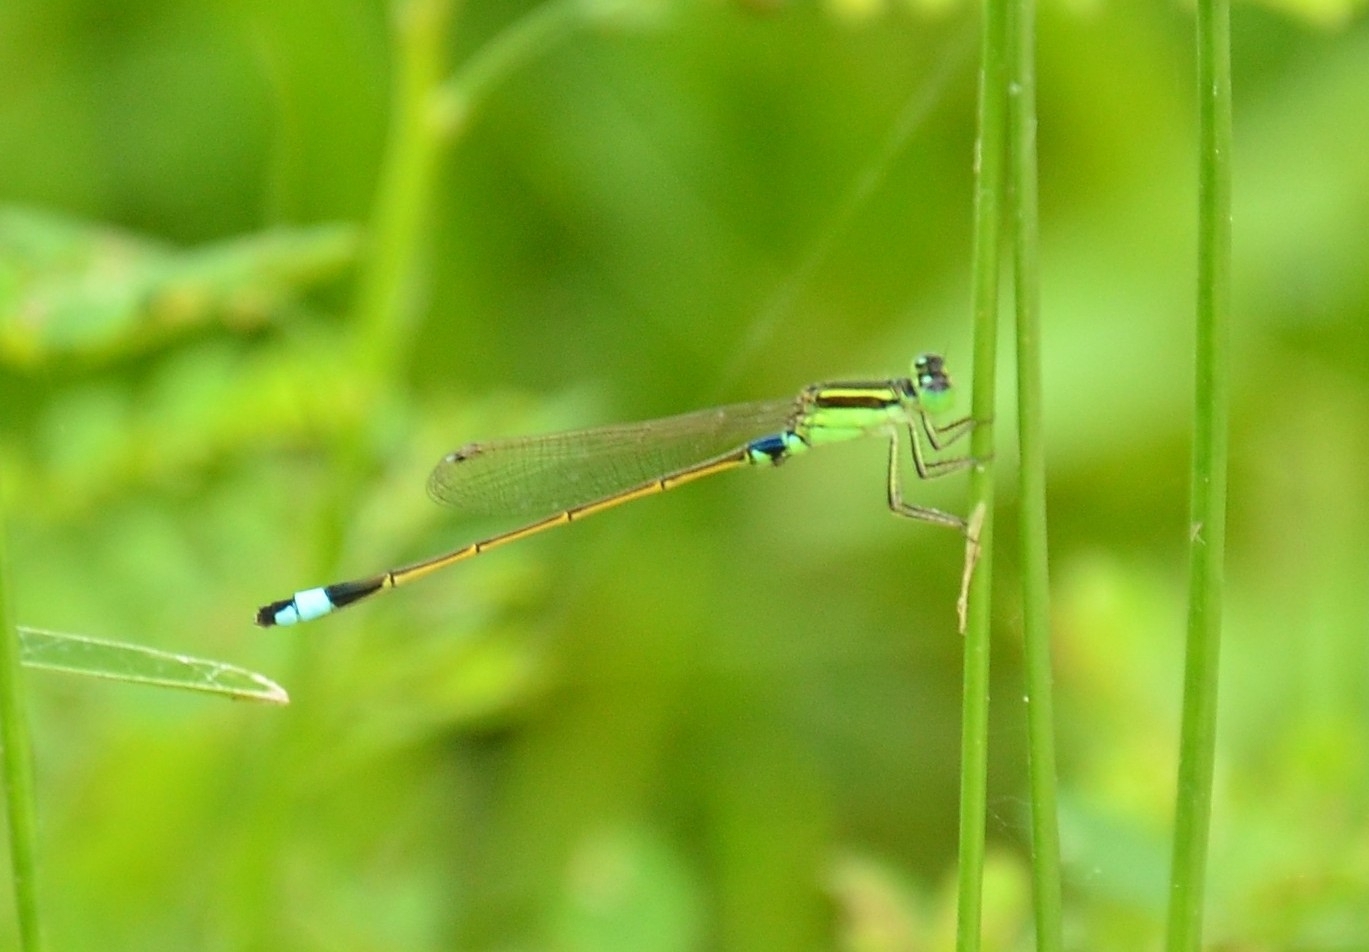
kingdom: Animalia
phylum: Arthropoda
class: Insecta
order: Odonata
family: Coenagrionidae
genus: Ischnura
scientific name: Ischnura senegalensis
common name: Tropical bluetail
